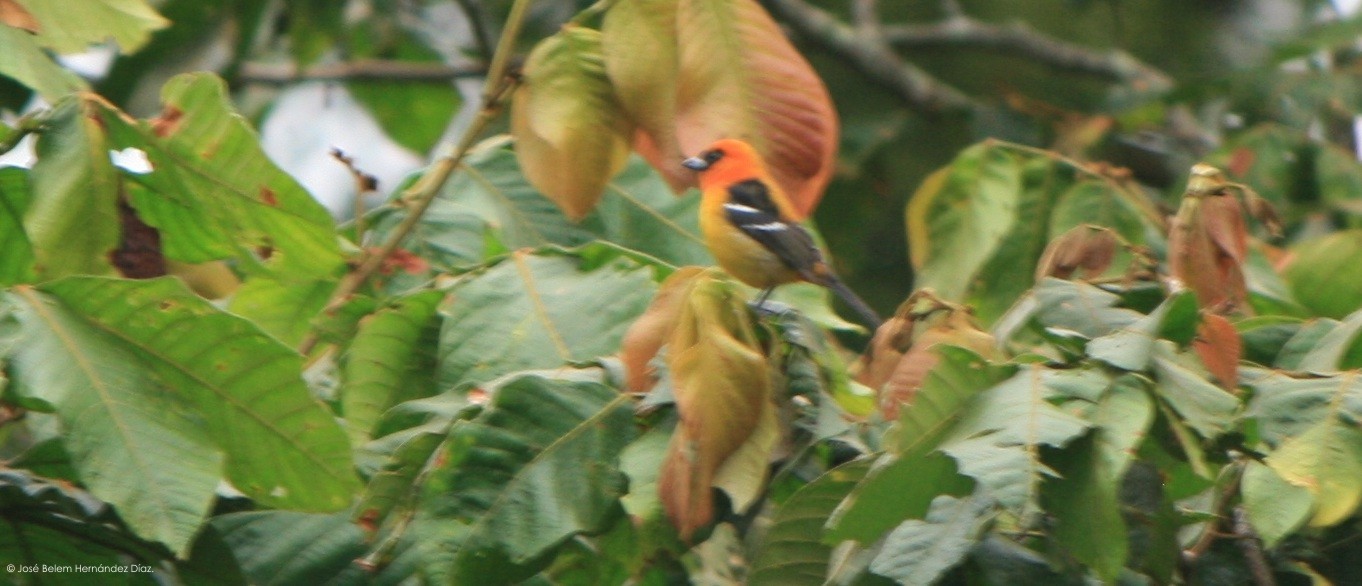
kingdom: Animalia
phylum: Chordata
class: Aves
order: Passeriformes
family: Cardinalidae
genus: Piranga
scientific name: Piranga leucoptera
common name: White-winged tanager
